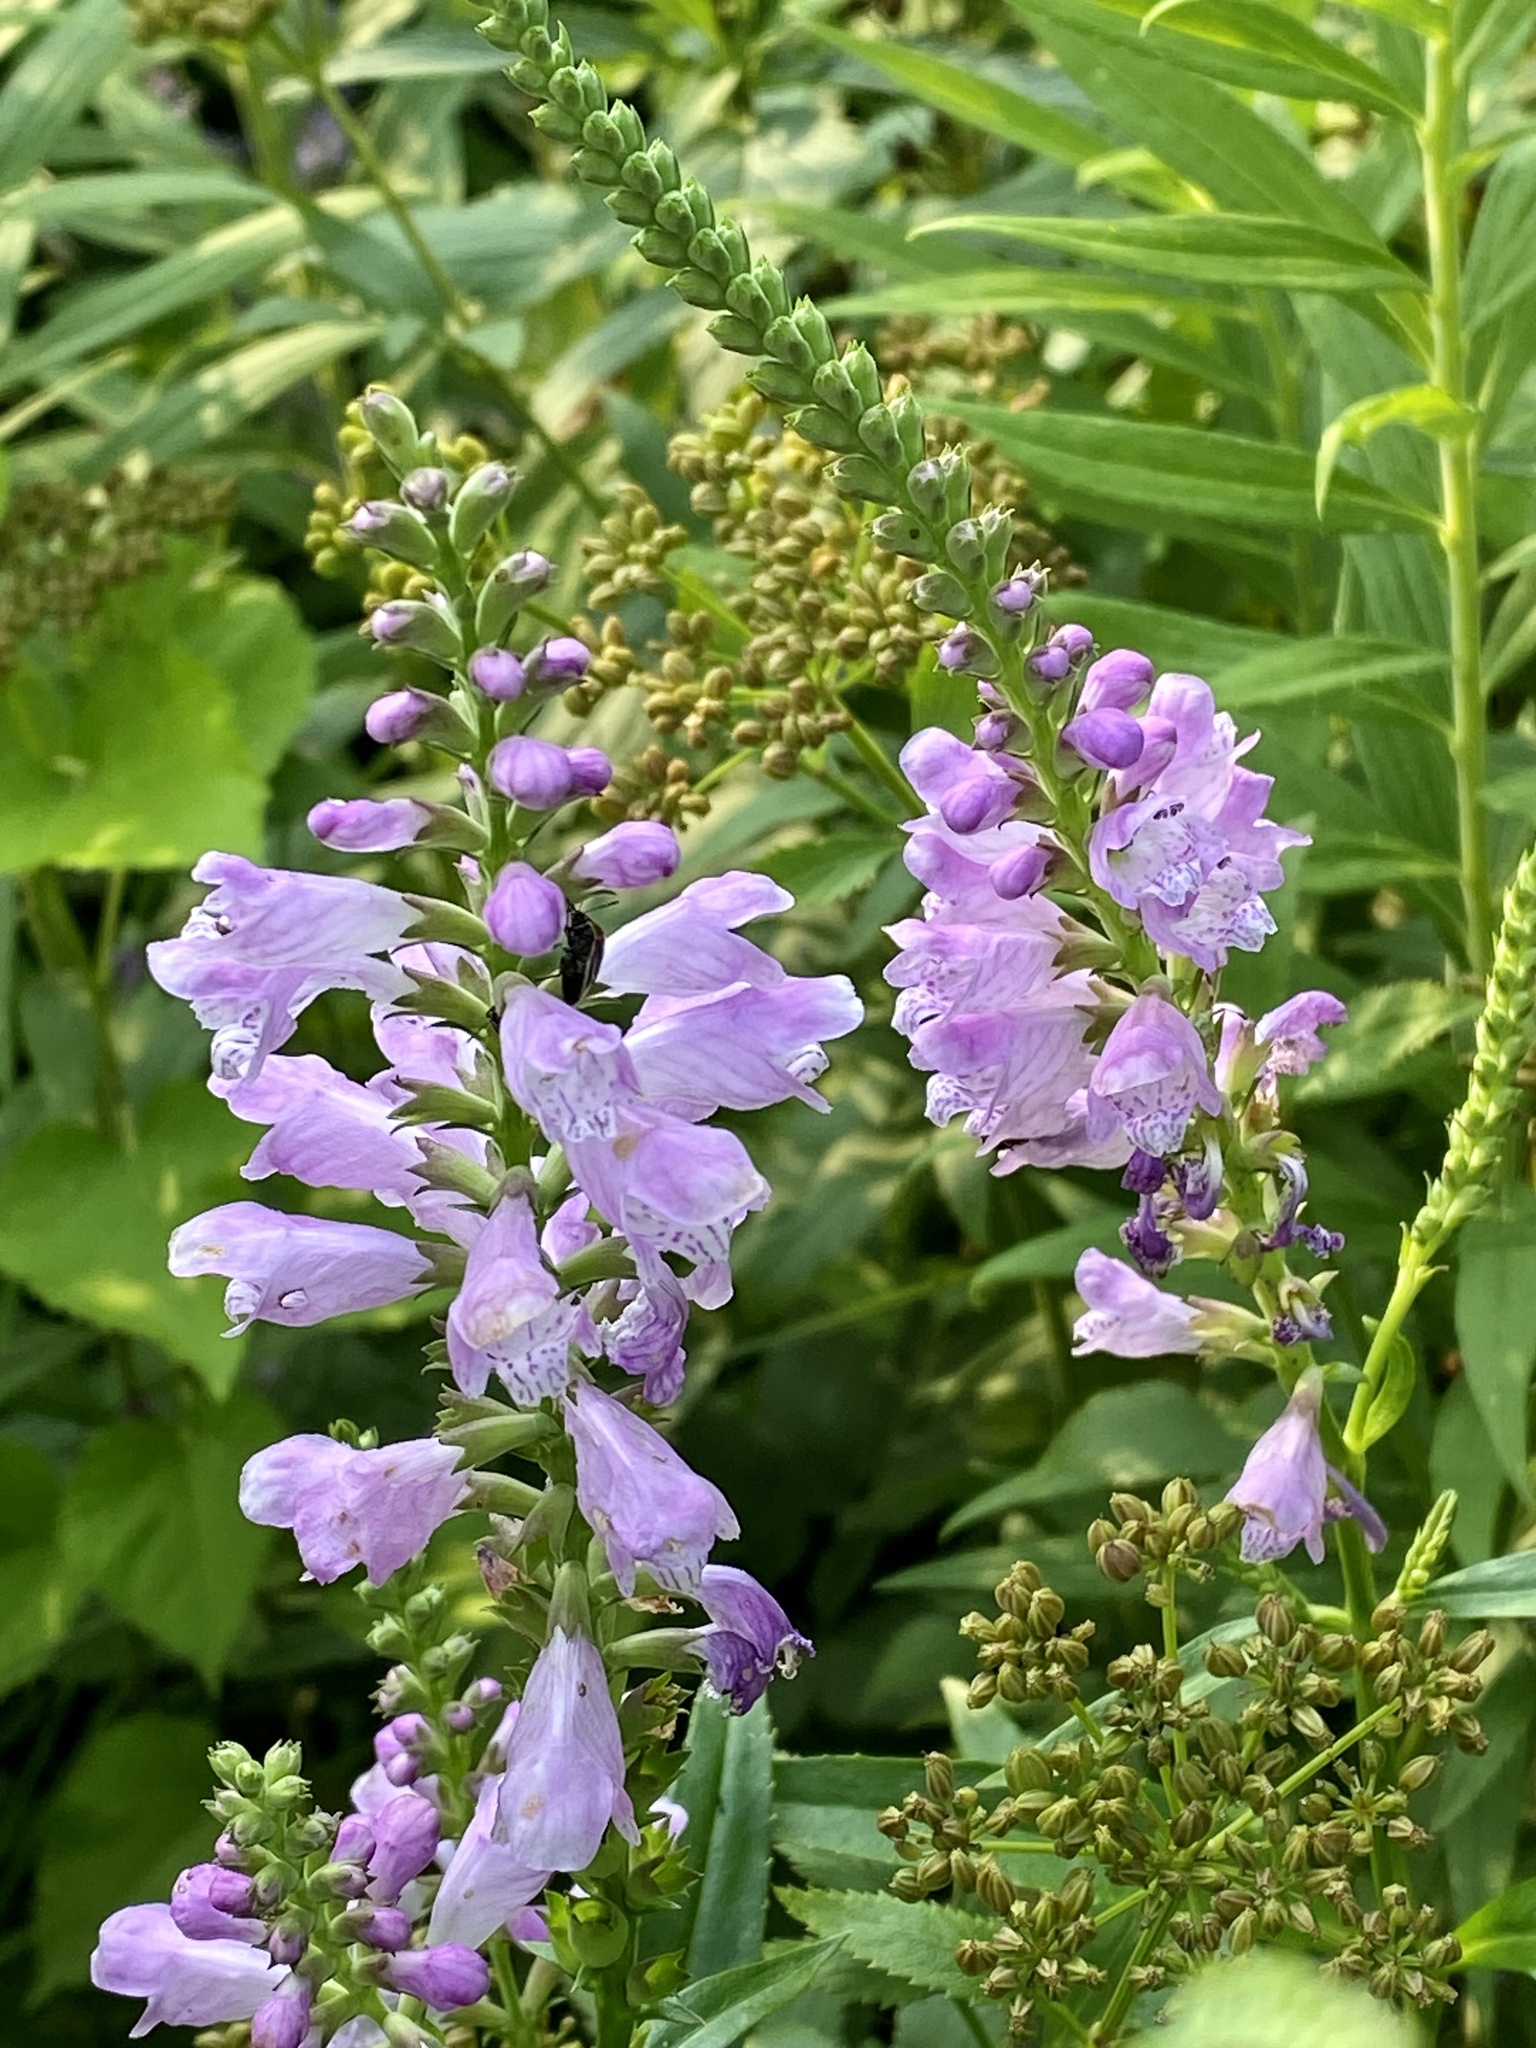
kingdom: Plantae
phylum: Tracheophyta
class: Magnoliopsida
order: Lamiales
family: Lamiaceae
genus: Physostegia
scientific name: Physostegia virginiana
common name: Obedient-plant
